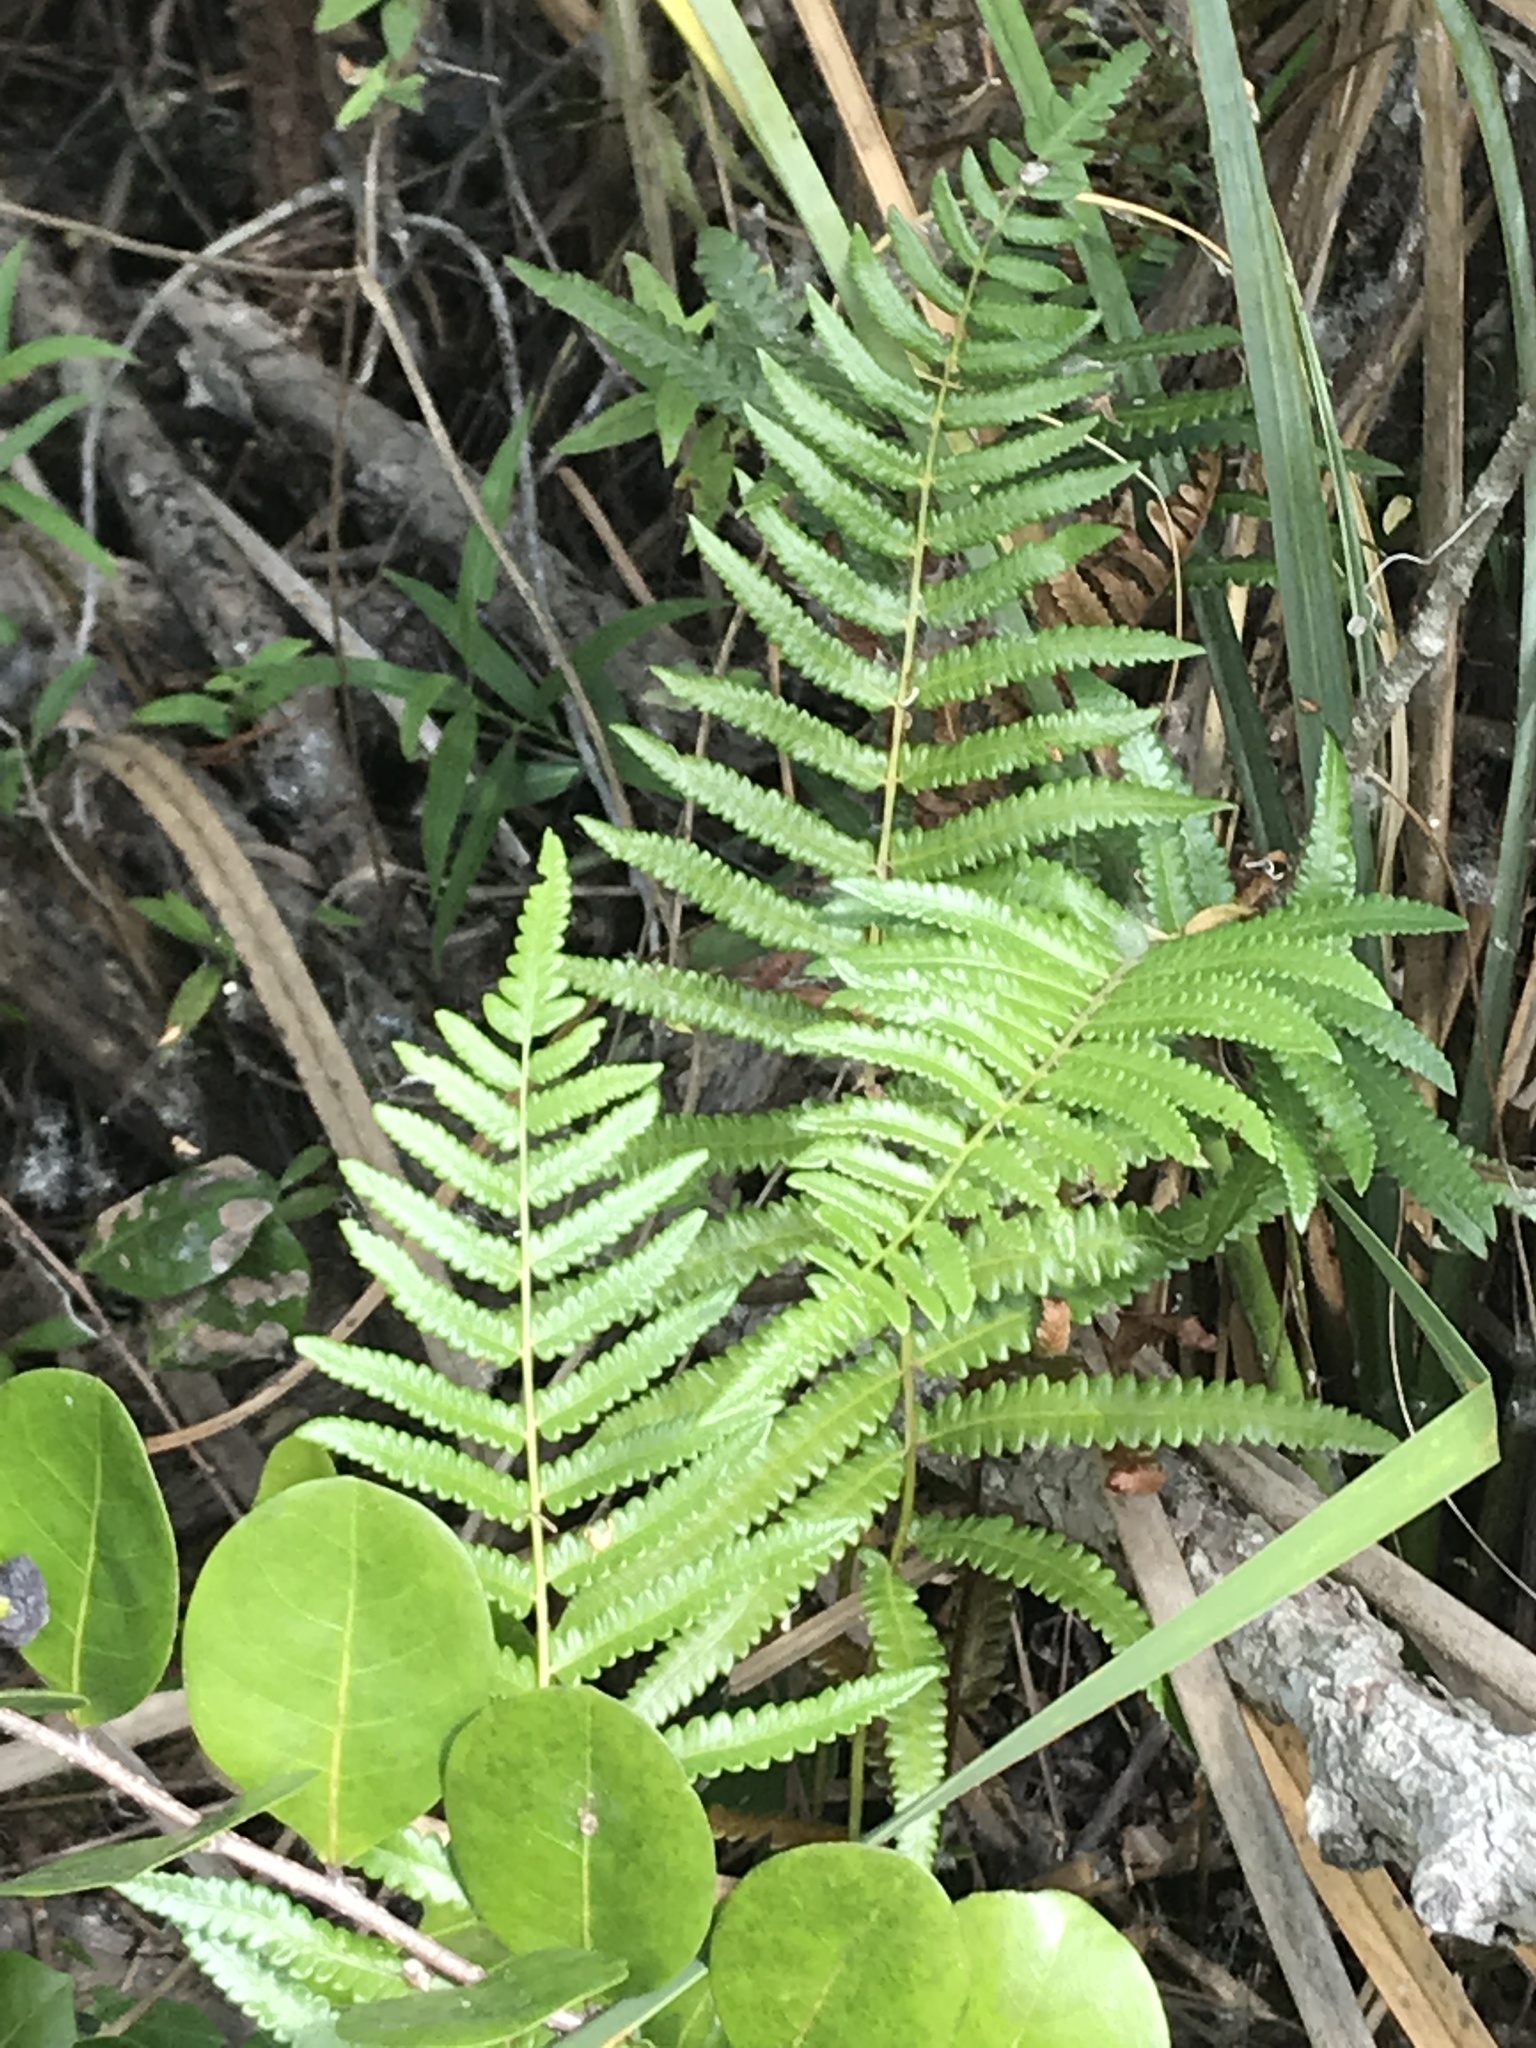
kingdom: Plantae
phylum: Tracheophyta
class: Polypodiopsida
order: Polypodiales
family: Thelypteridaceae
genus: Pelazoneuron
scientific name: Pelazoneuron kunthii
